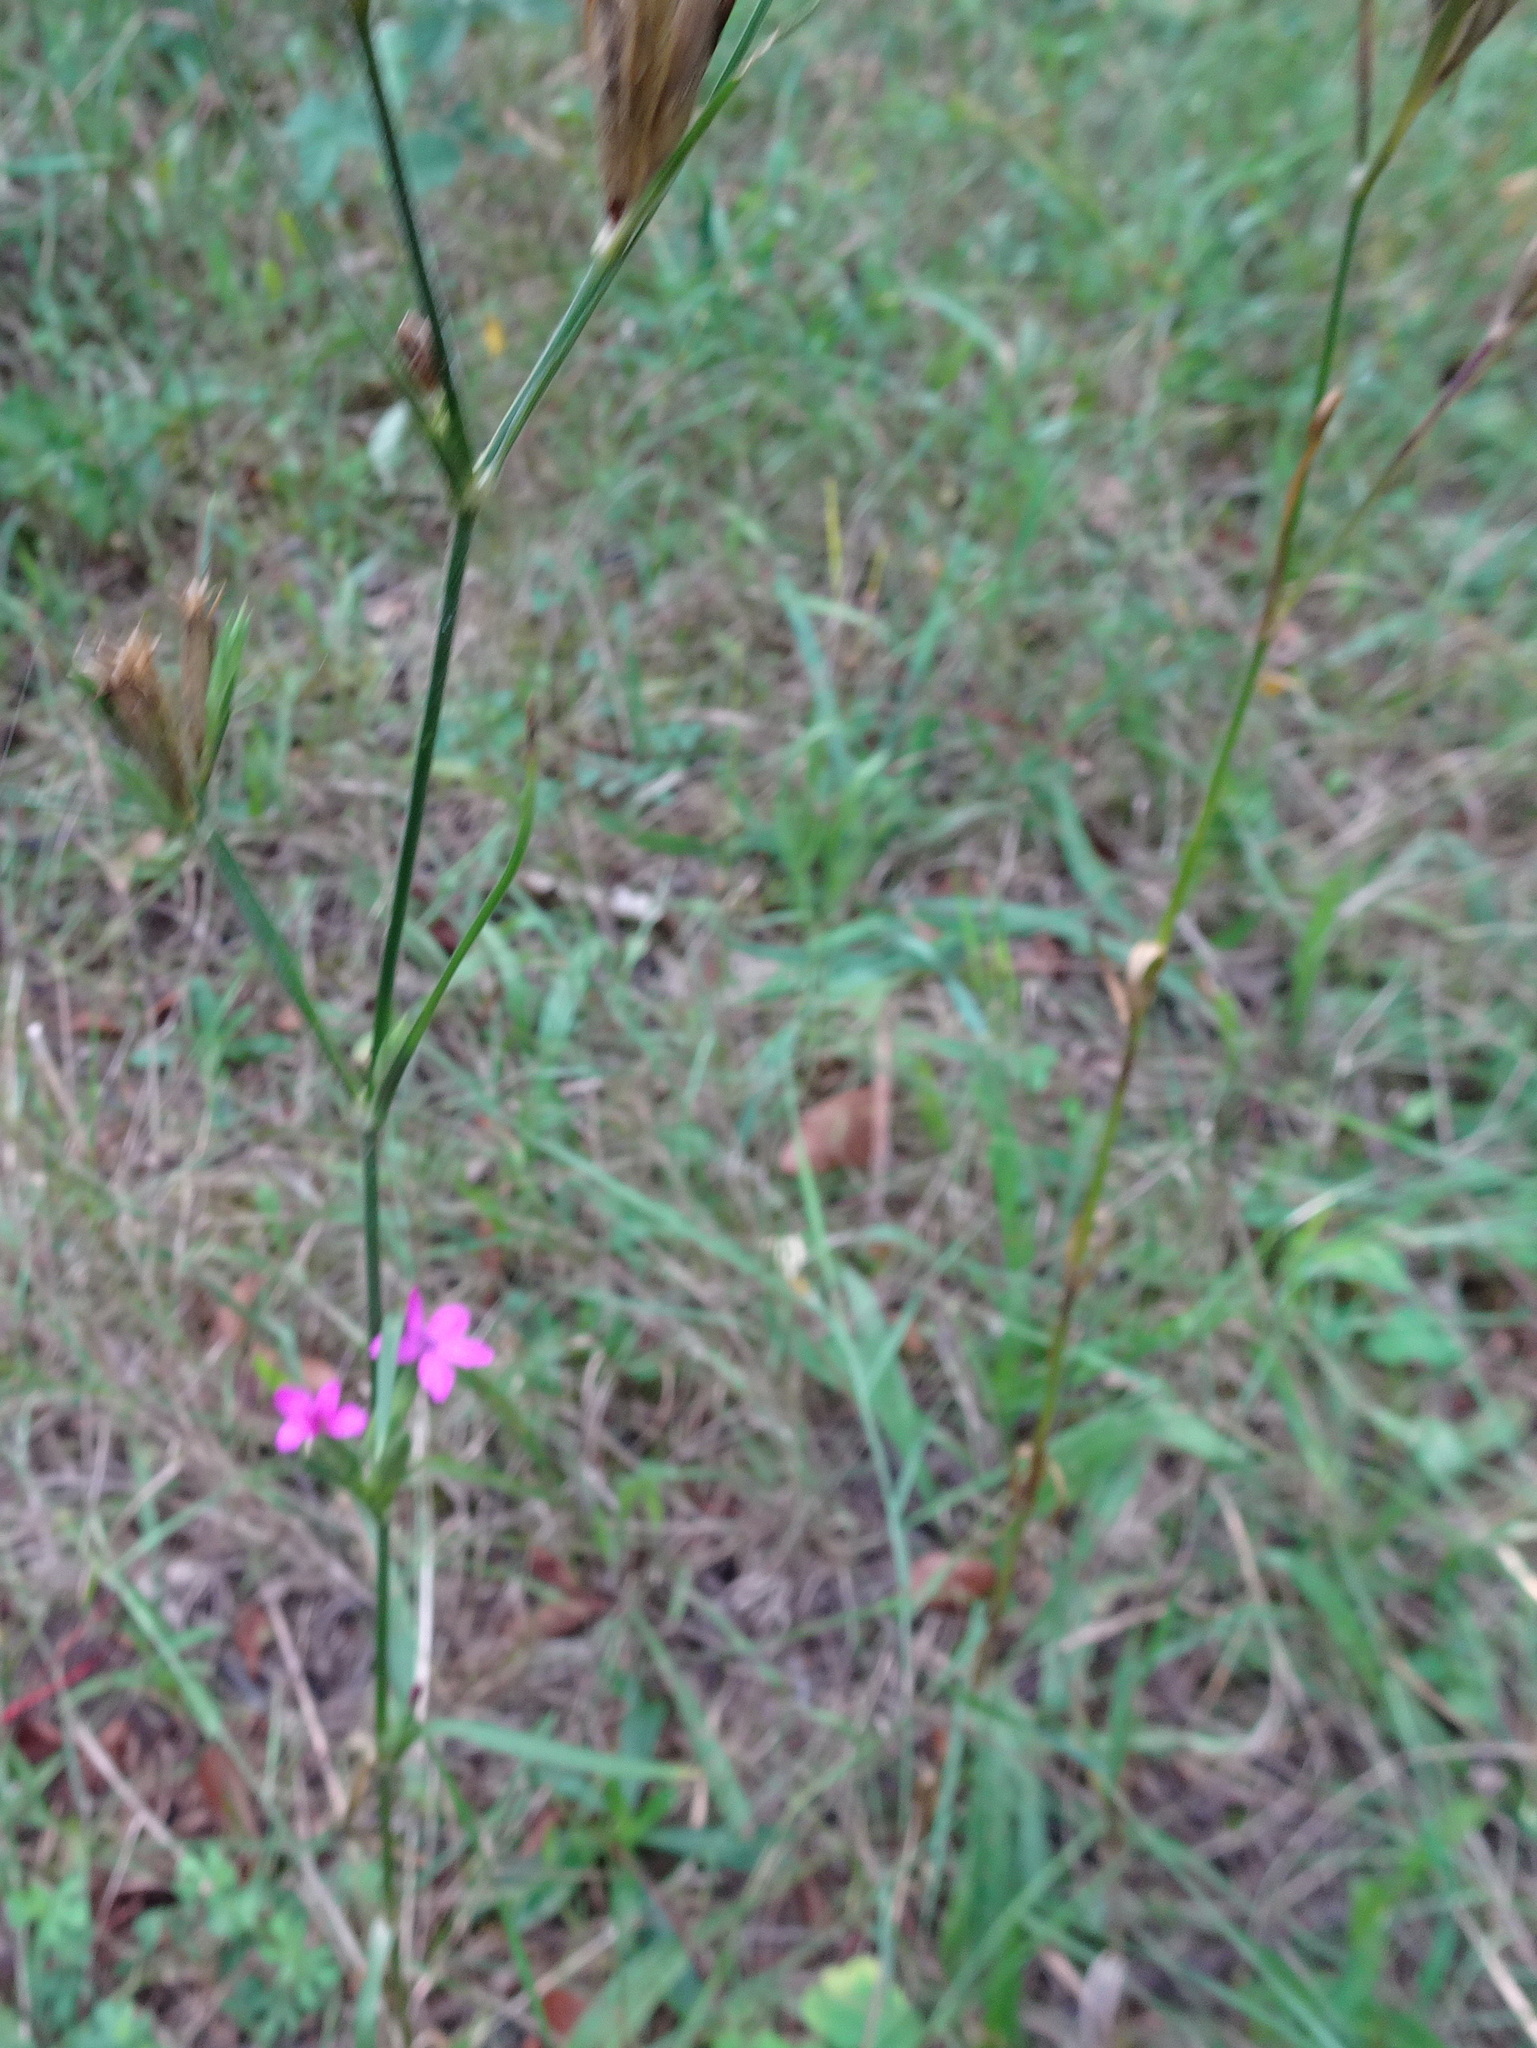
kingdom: Plantae
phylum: Tracheophyta
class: Magnoliopsida
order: Caryophyllales
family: Caryophyllaceae
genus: Dianthus
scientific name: Dianthus armeria
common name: Deptford pink
